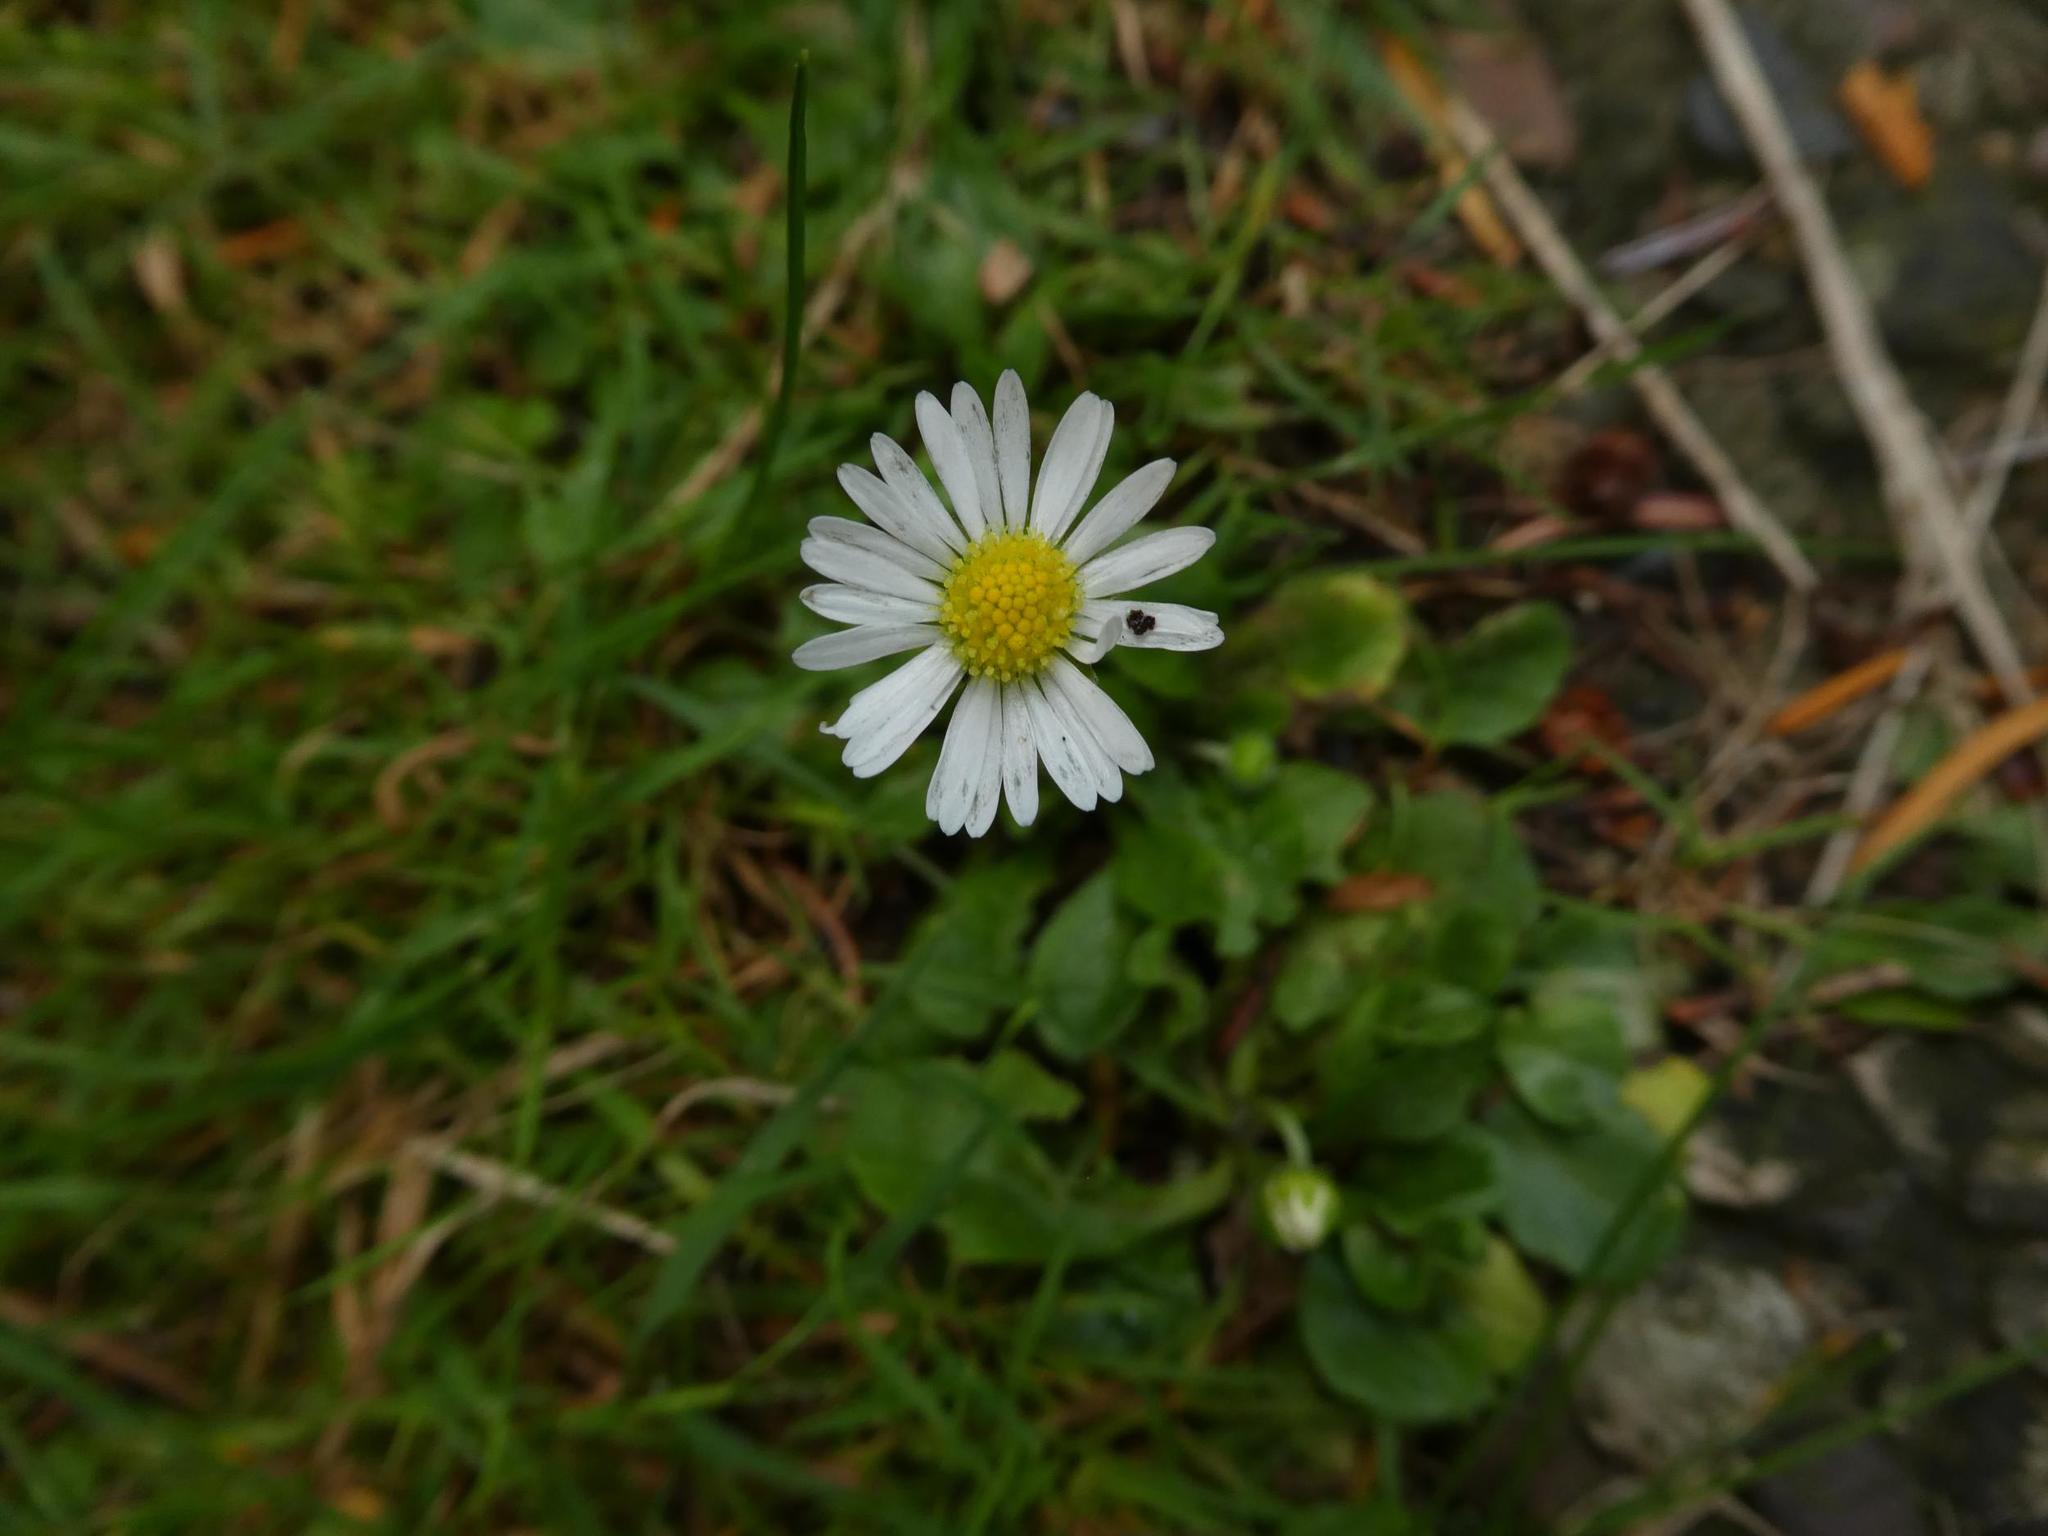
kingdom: Plantae
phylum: Tracheophyta
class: Magnoliopsida
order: Asterales
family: Asteraceae
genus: Bellis
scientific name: Bellis perennis
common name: Lawndaisy
